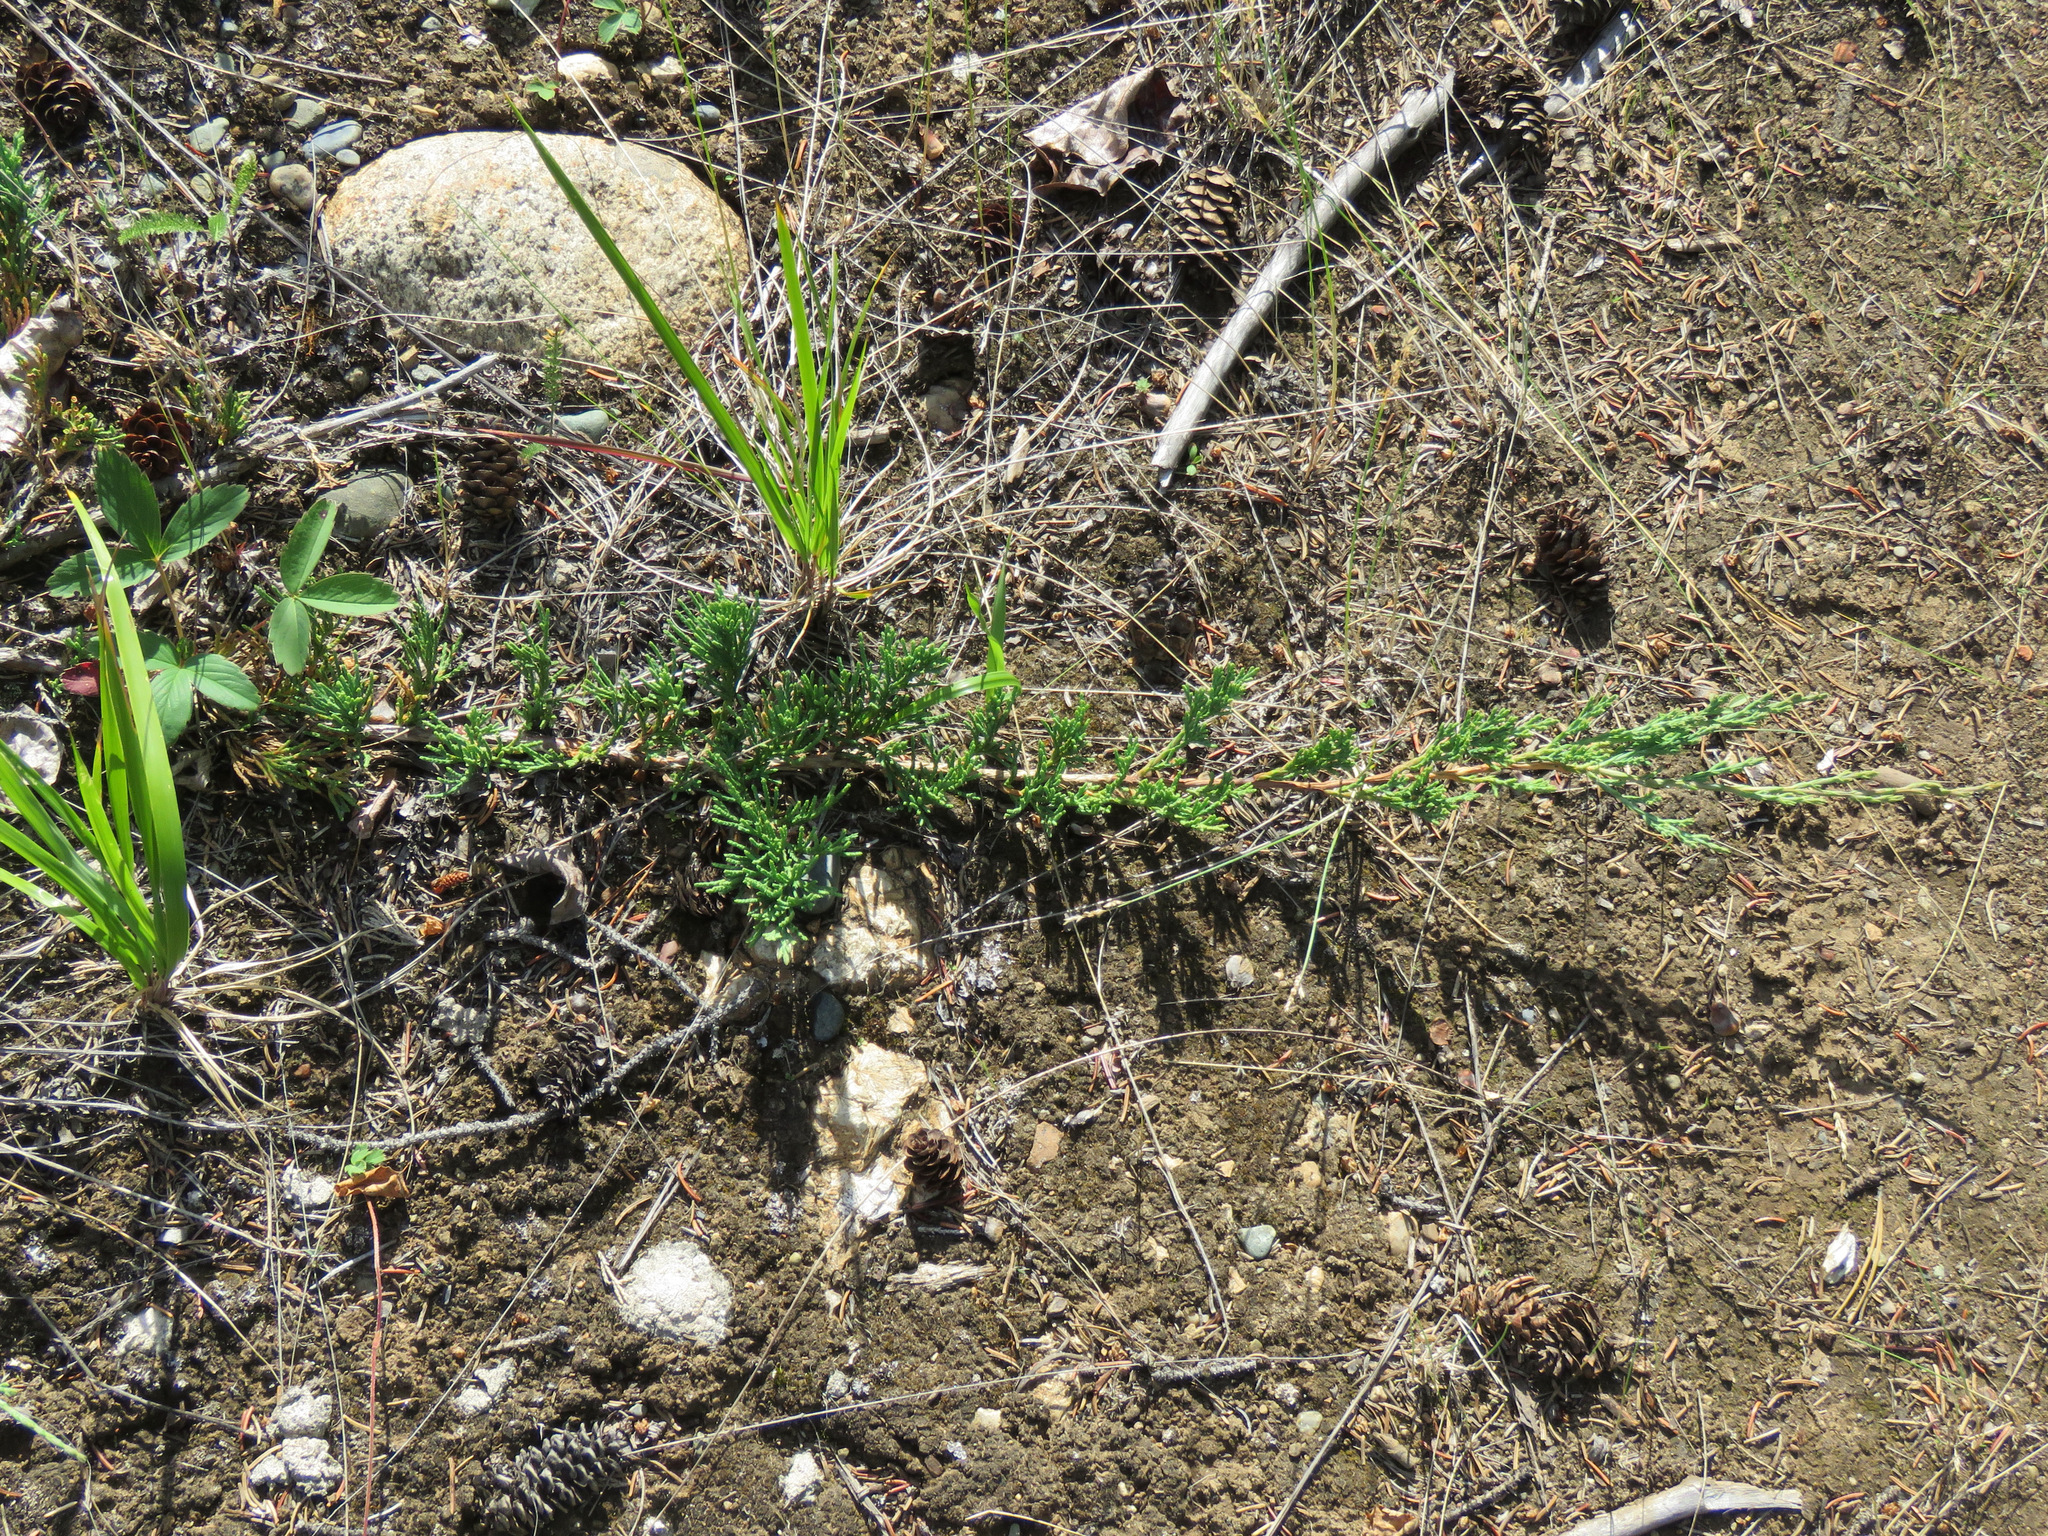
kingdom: Plantae
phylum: Tracheophyta
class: Pinopsida
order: Pinales
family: Cupressaceae
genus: Juniperus
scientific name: Juniperus horizontalis
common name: Creeping juniper
